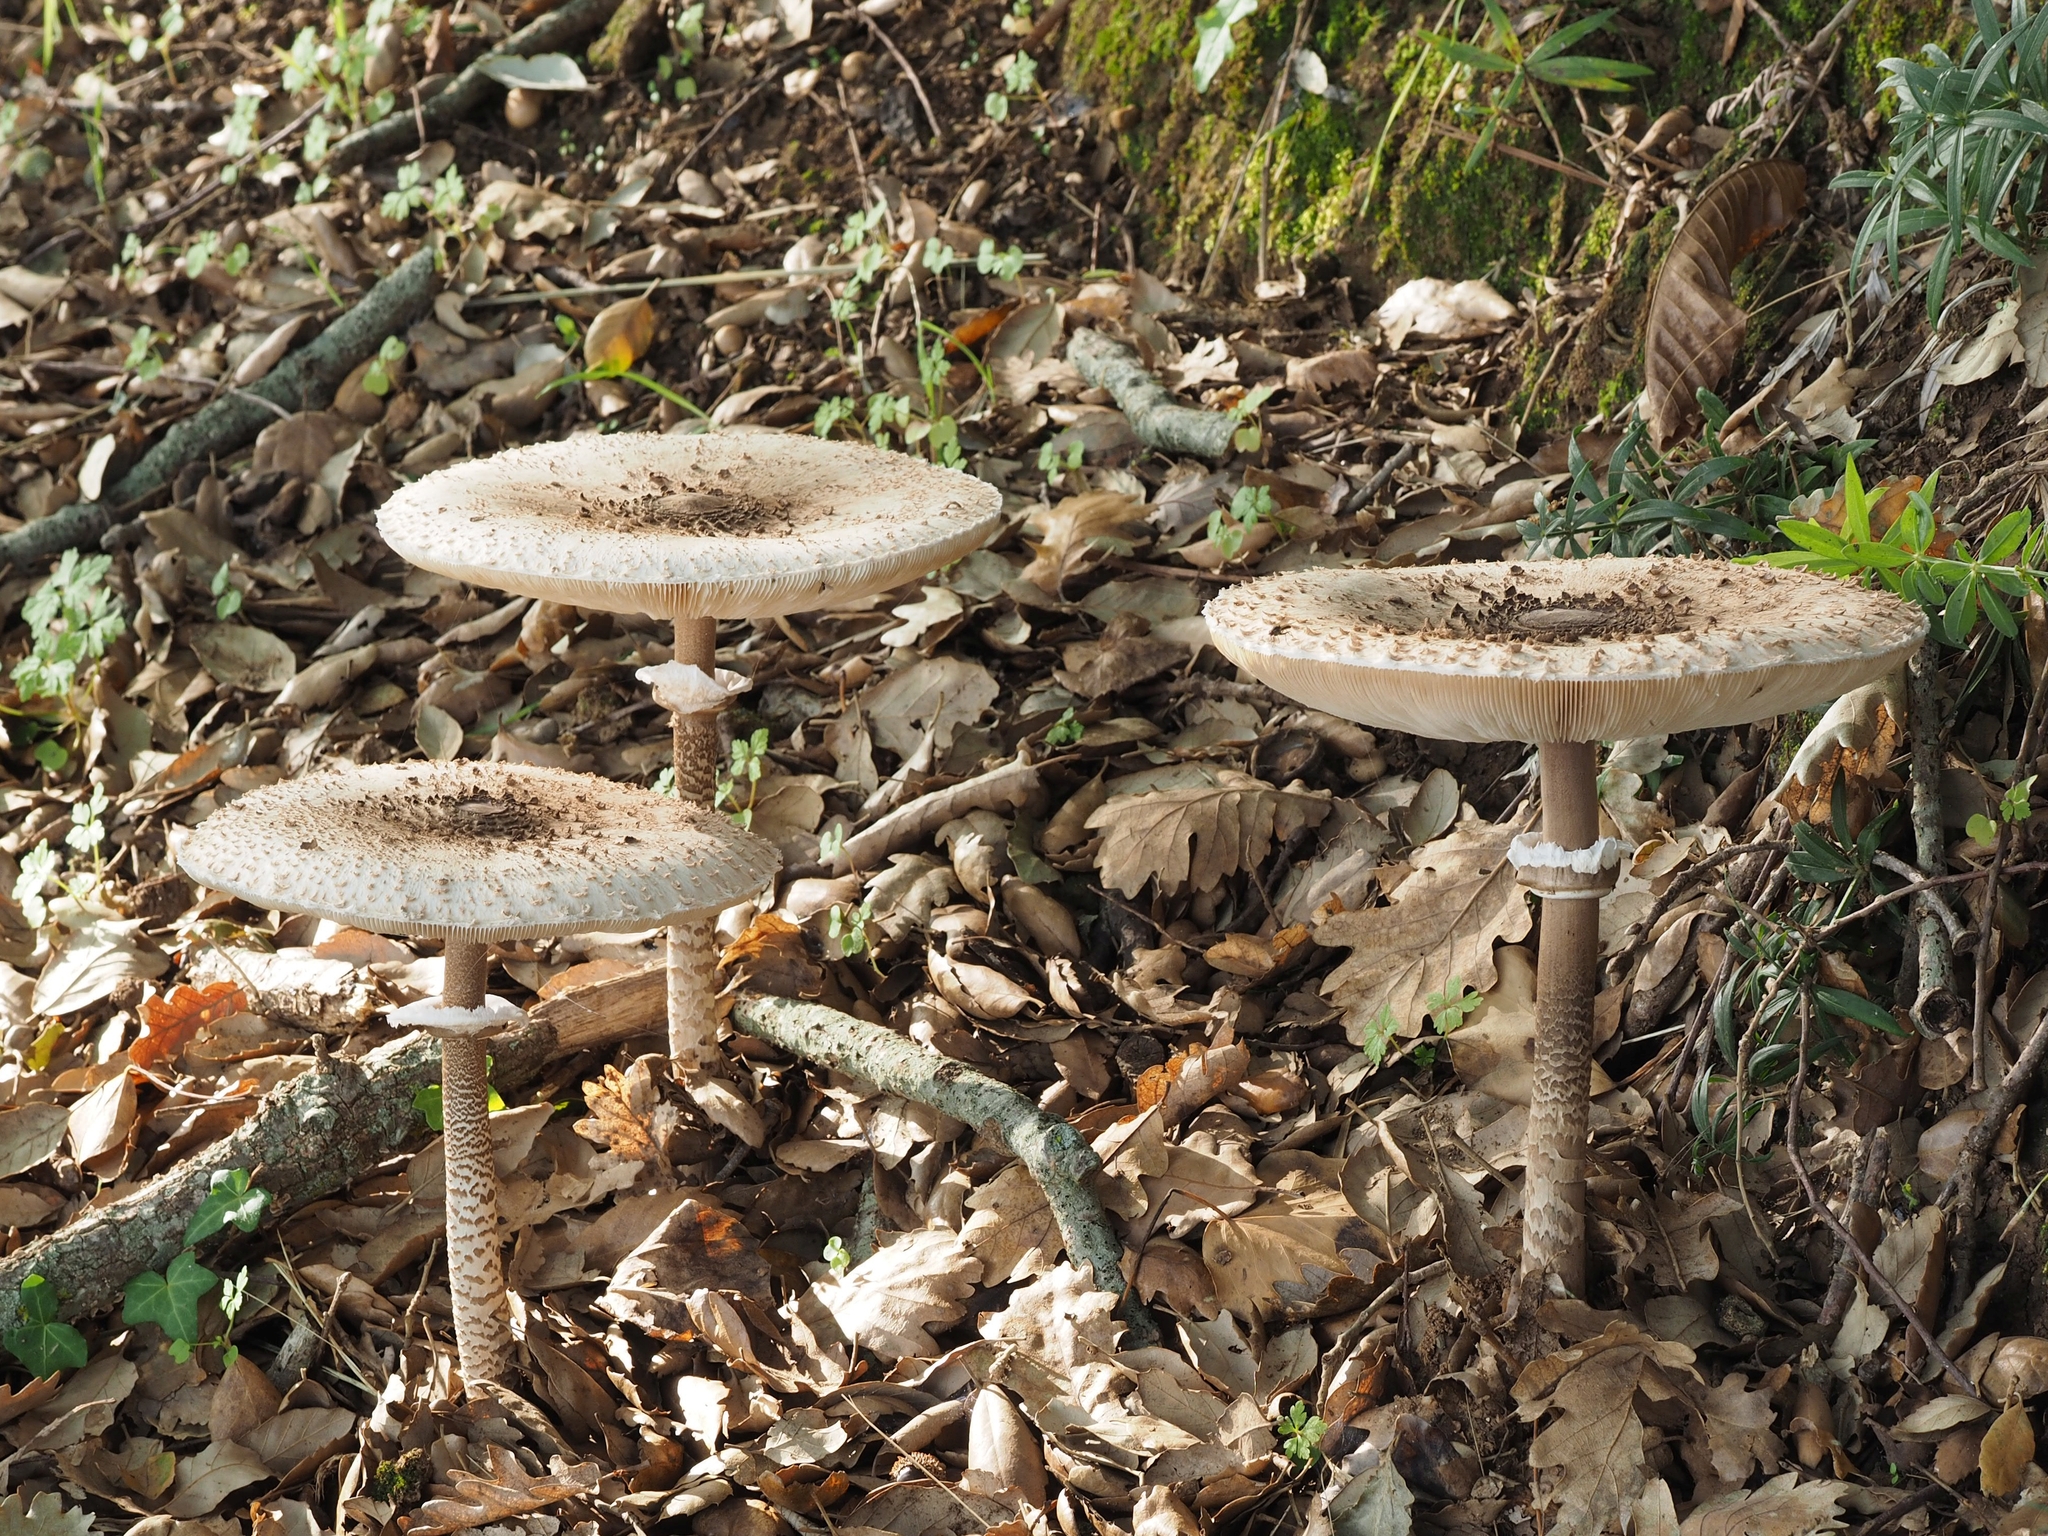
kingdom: Fungi
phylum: Basidiomycota
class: Agaricomycetes
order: Agaricales
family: Agaricaceae
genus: Macrolepiota
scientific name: Macrolepiota procera
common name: Parasol
